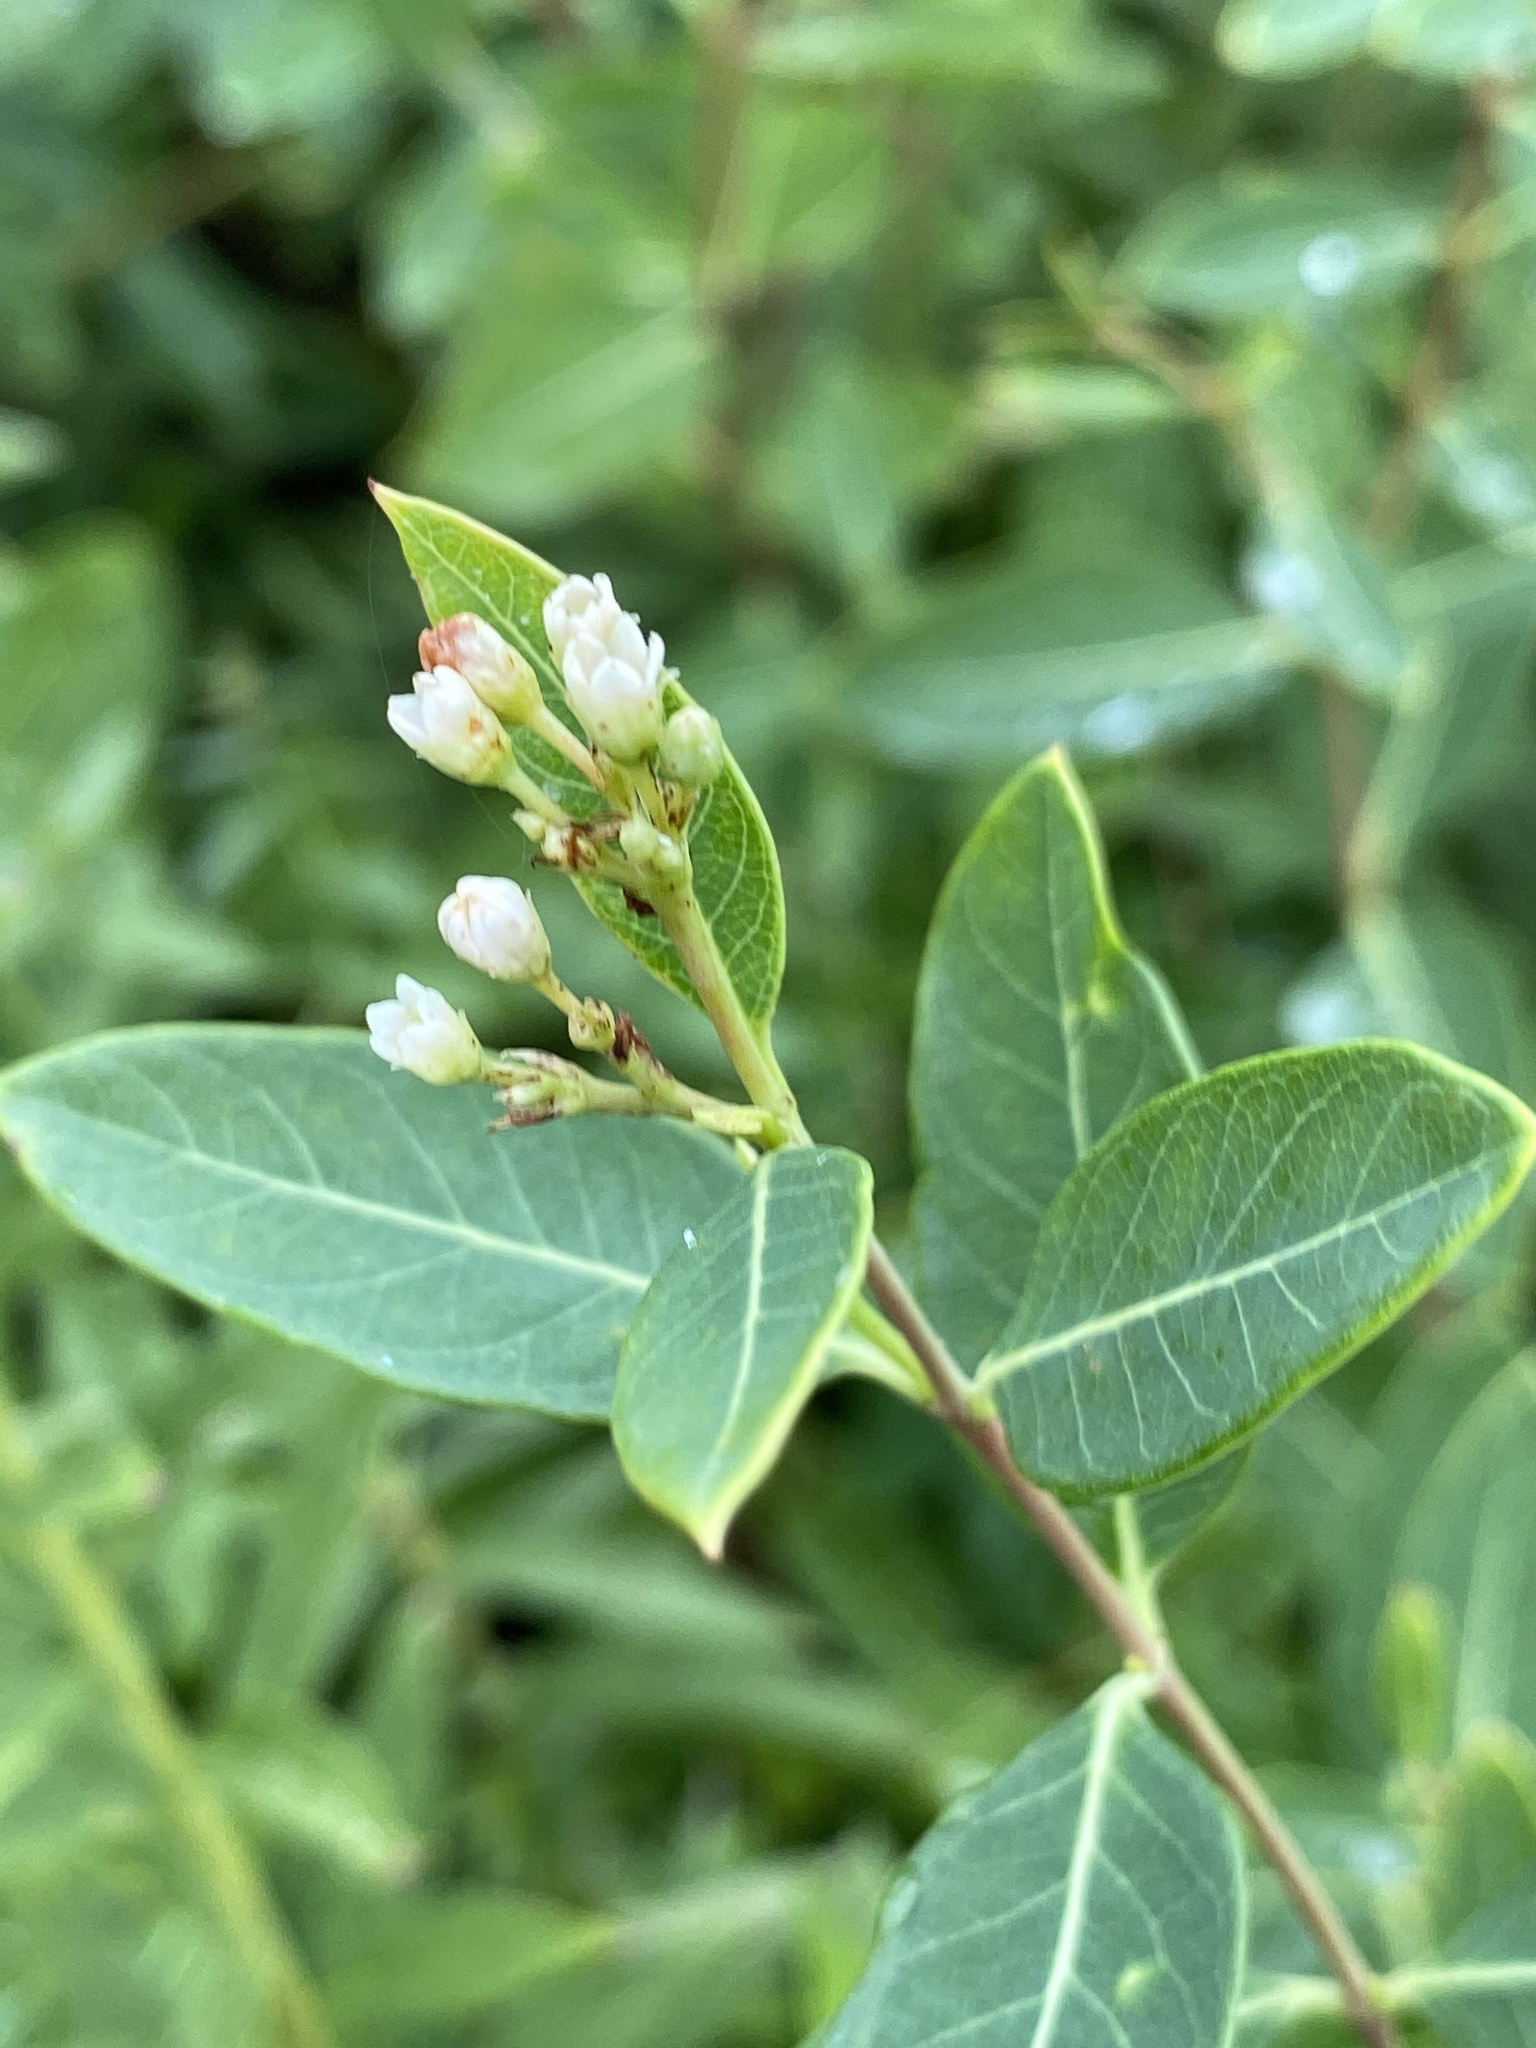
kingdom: Plantae
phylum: Tracheophyta
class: Magnoliopsida
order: Gentianales
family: Apocynaceae
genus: Apocynum
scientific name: Apocynum cannabinum
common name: Hemp dogbane
